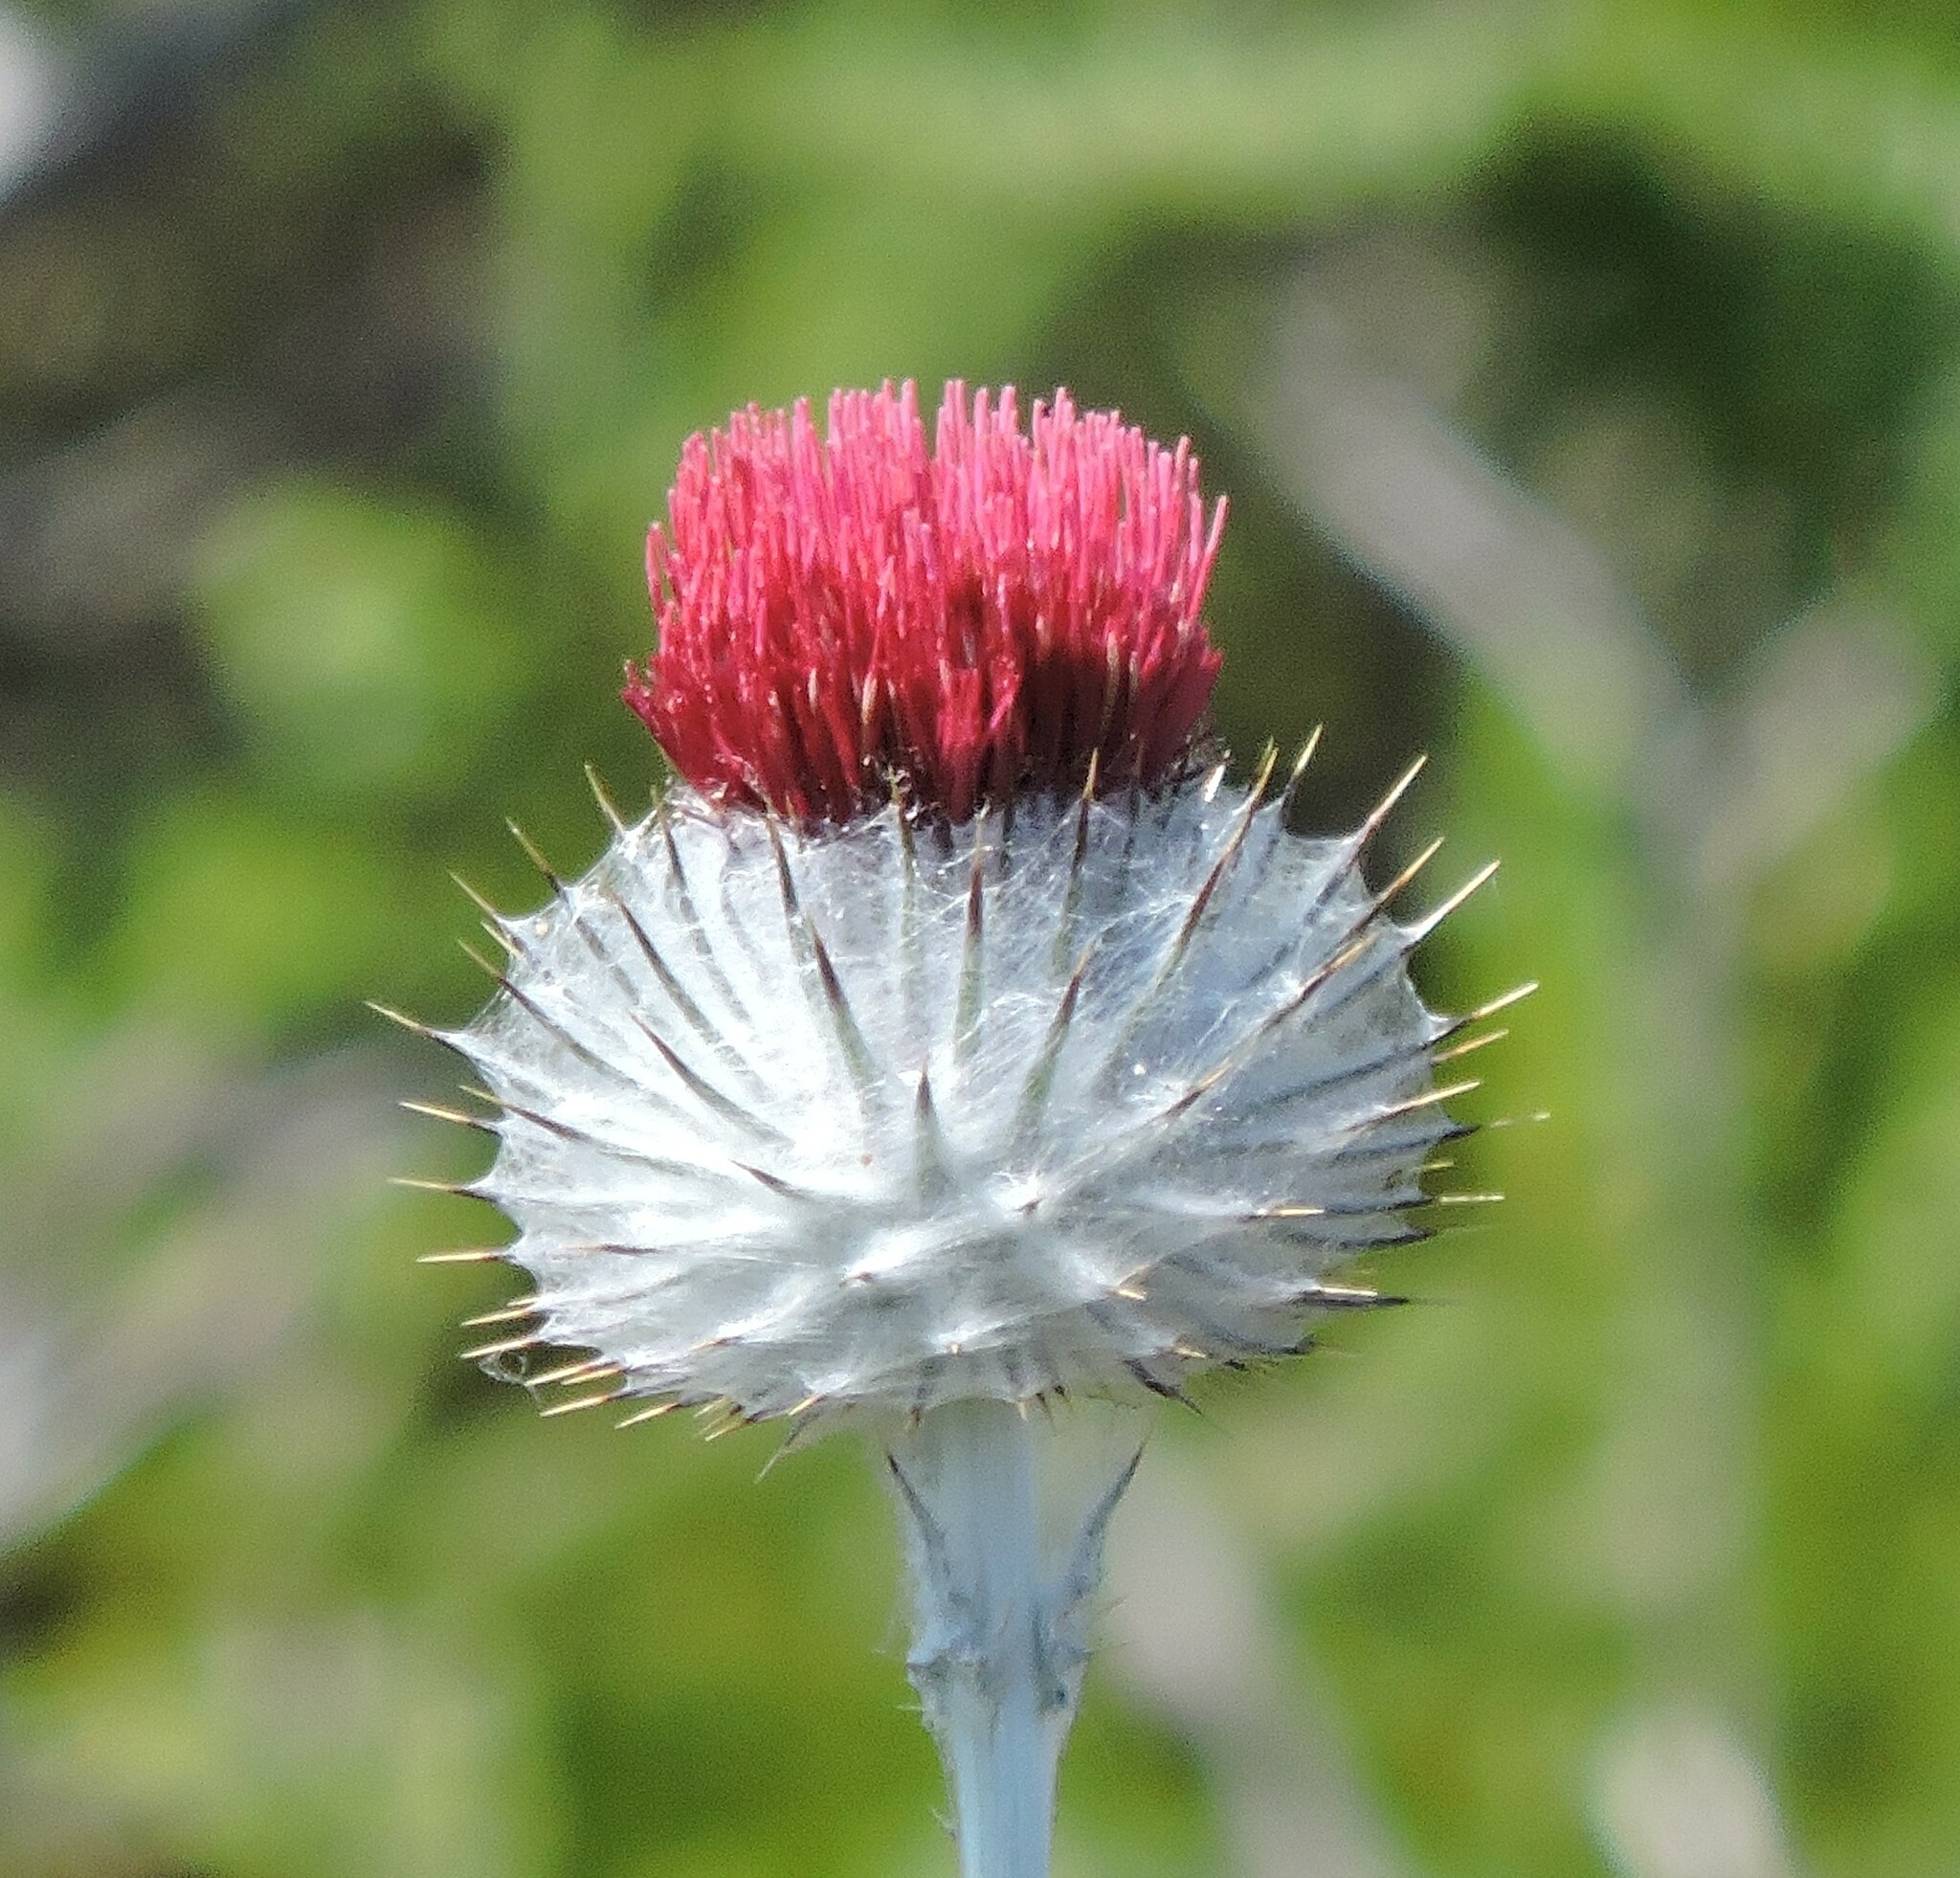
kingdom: Plantae
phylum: Tracheophyta
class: Magnoliopsida
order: Asterales
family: Asteraceae
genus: Cirsium
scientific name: Cirsium occidentale
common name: Western thistle
